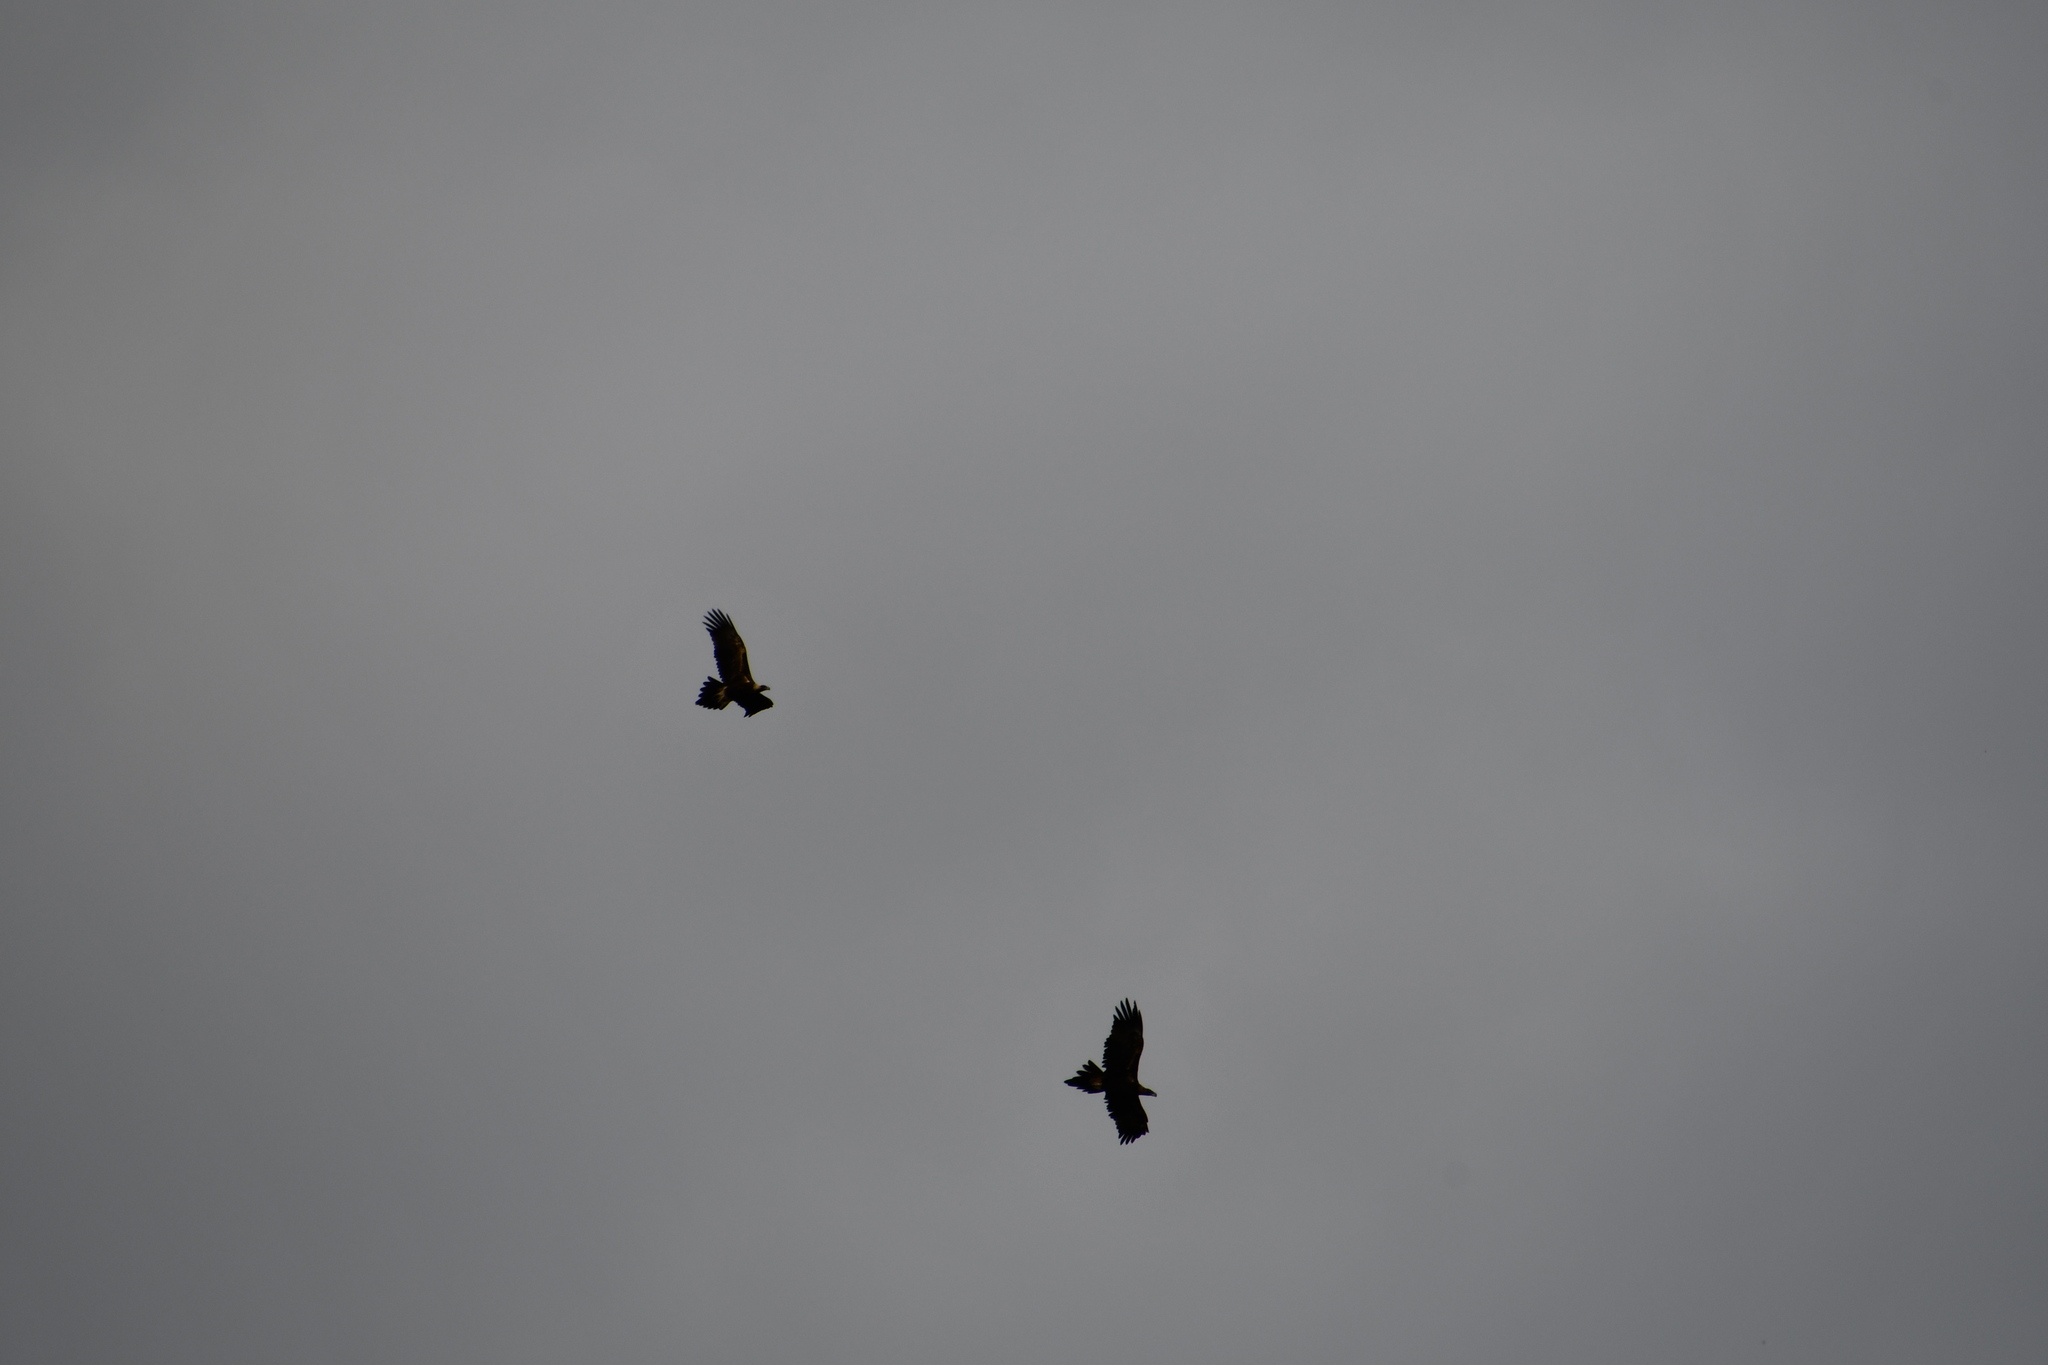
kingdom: Animalia
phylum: Chordata
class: Aves
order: Accipitriformes
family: Accipitridae
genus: Aquila
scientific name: Aquila audax
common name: Wedge-tailed eagle
